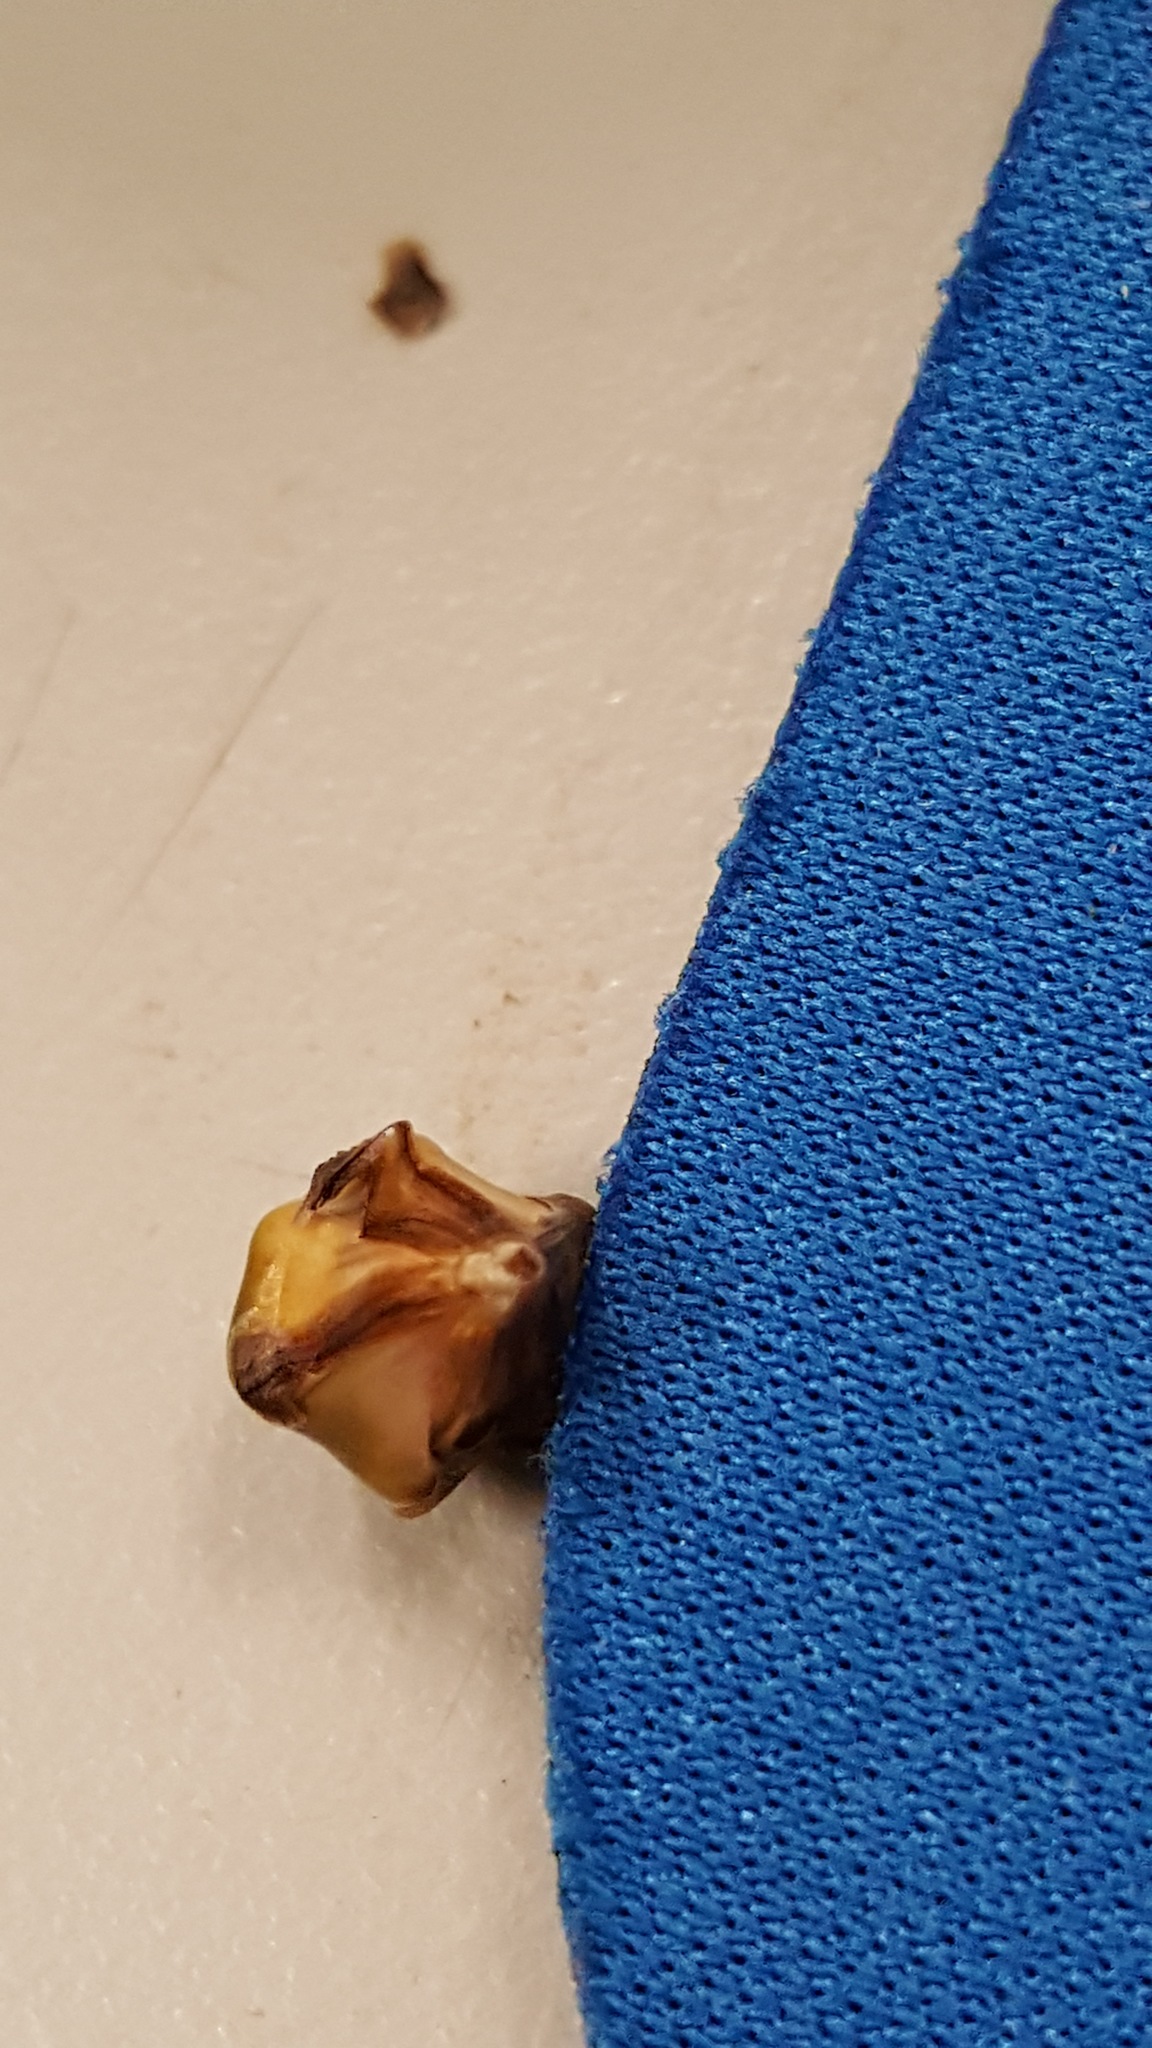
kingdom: Plantae
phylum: Tracheophyta
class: Liliopsida
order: Poales
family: Typhaceae
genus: Sparganium
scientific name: Sparganium eurycarpum
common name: Broad-fruited burreed
